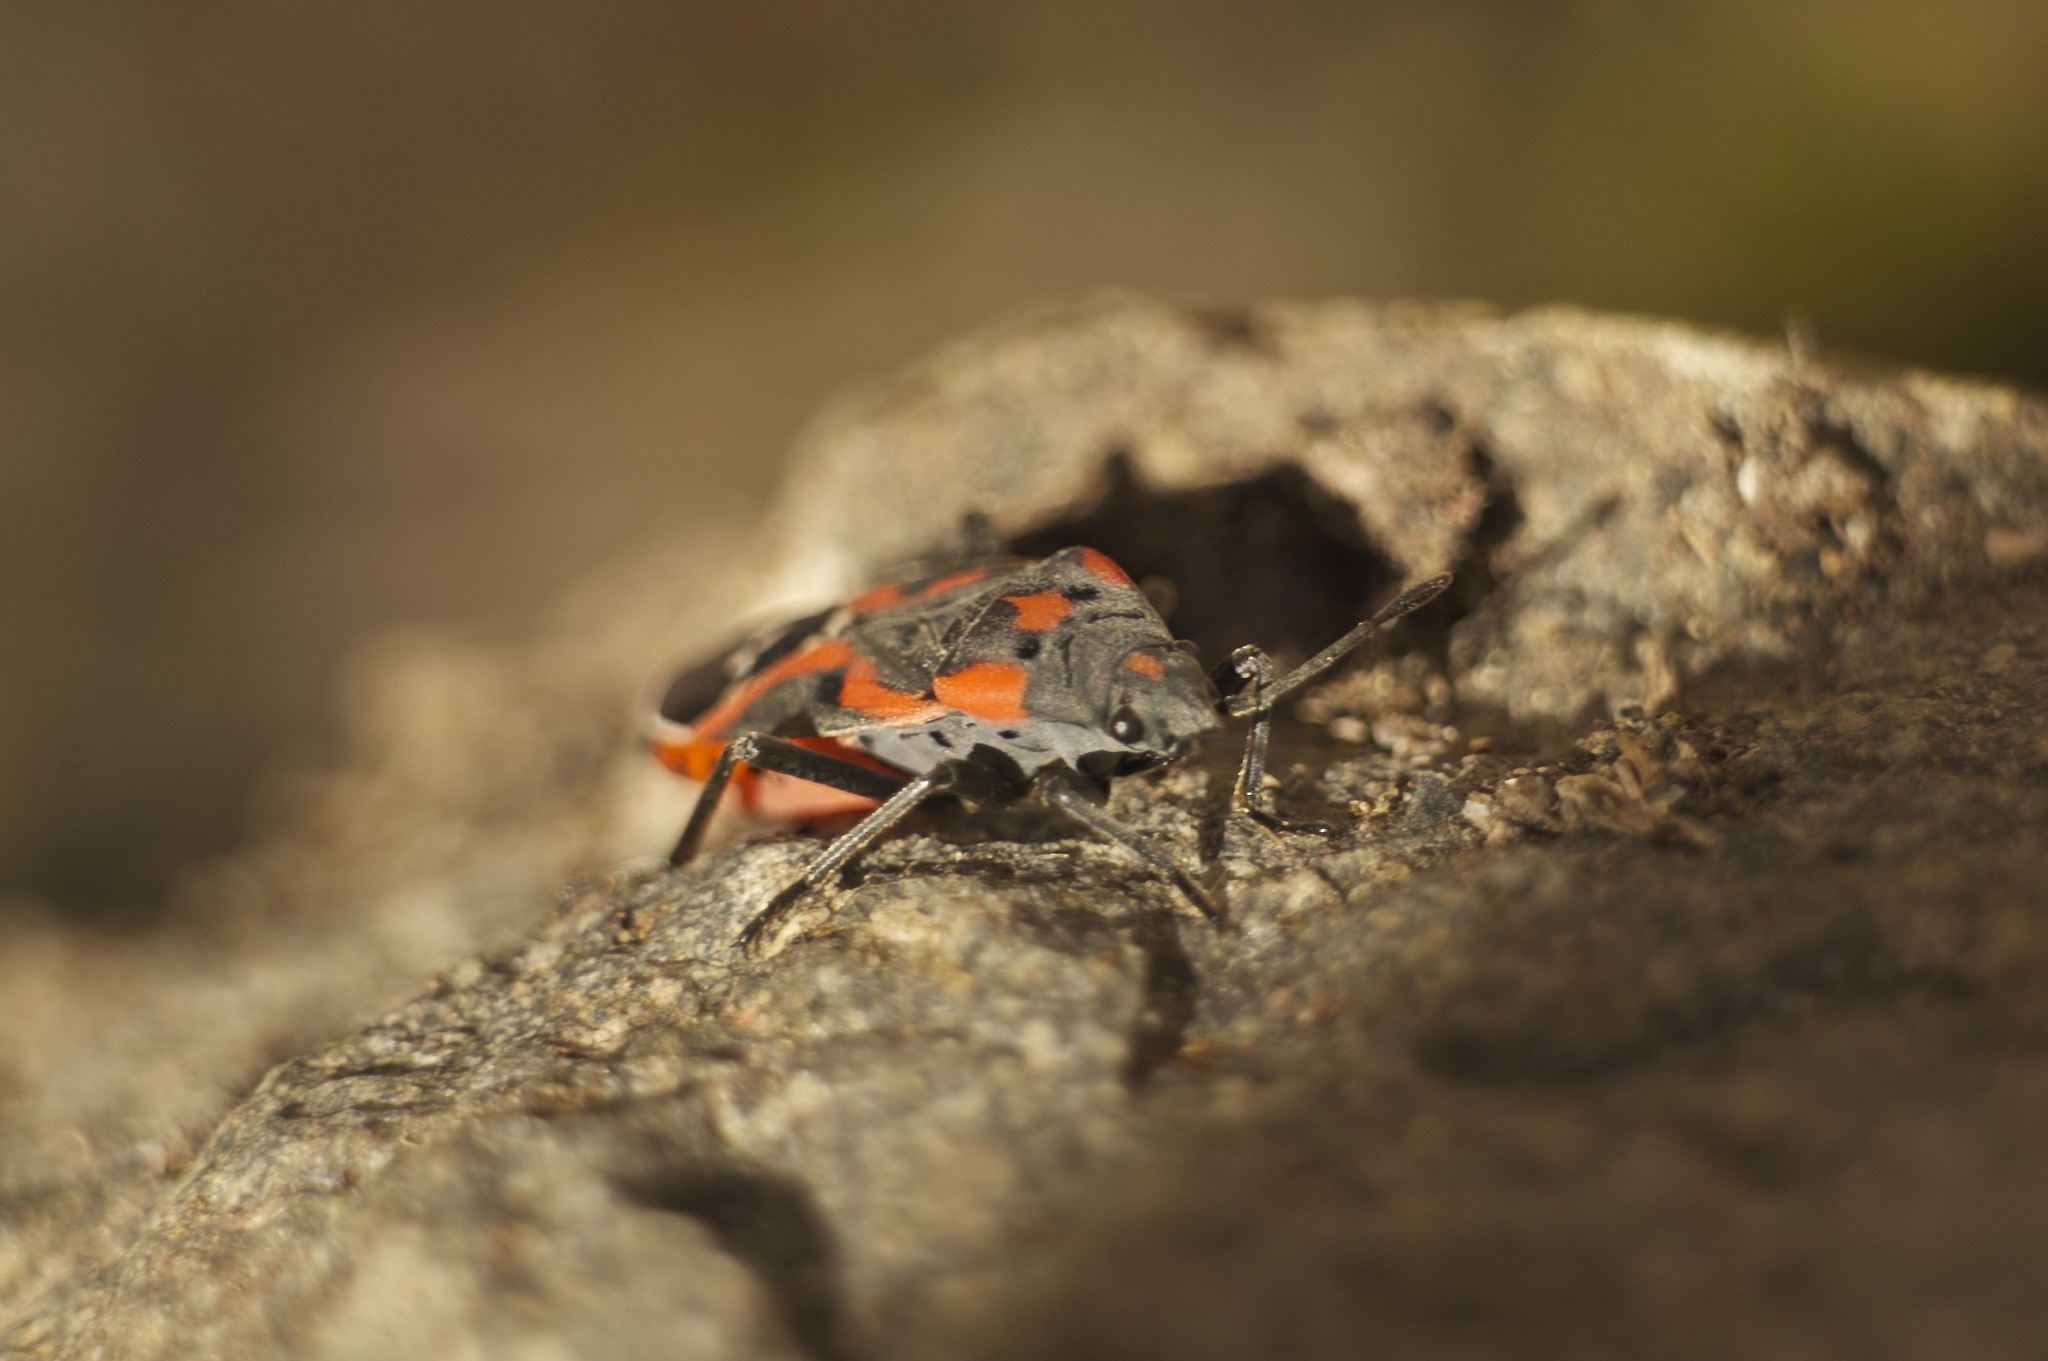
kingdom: Animalia
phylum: Arthropoda
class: Insecta
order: Hemiptera
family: Lygaeidae
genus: Lygaeus
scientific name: Lygaeus kalmii
